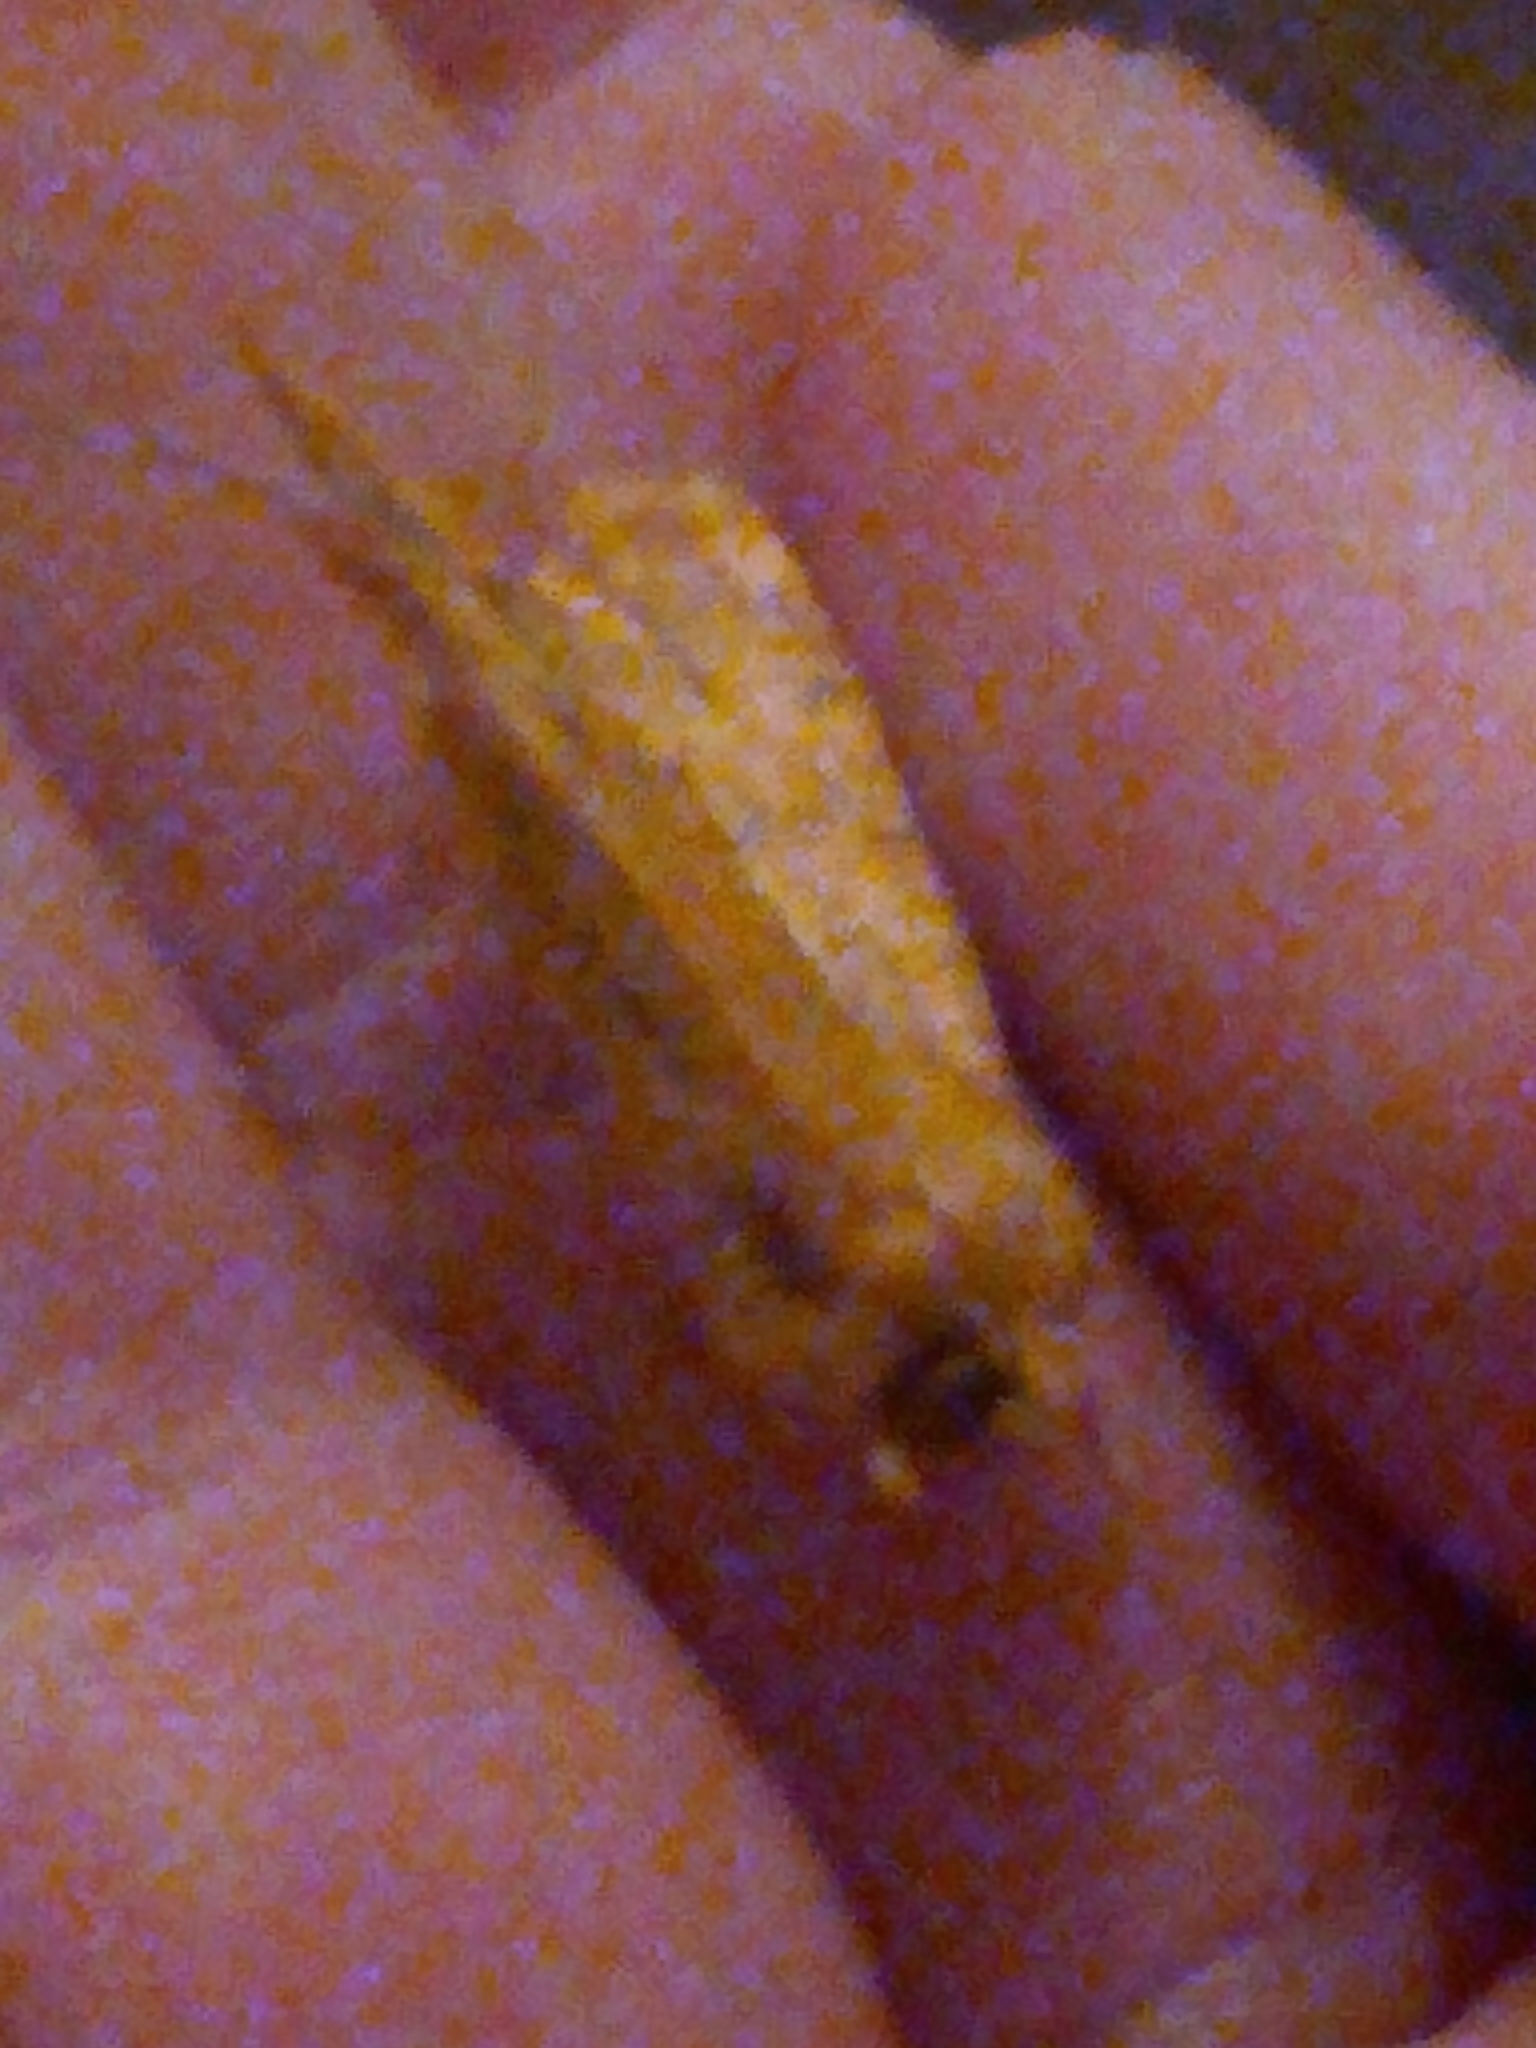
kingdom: Animalia
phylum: Arthropoda
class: Insecta
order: Lepidoptera
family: Noctuidae
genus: Agrochola
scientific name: Agrochola bicolorago
